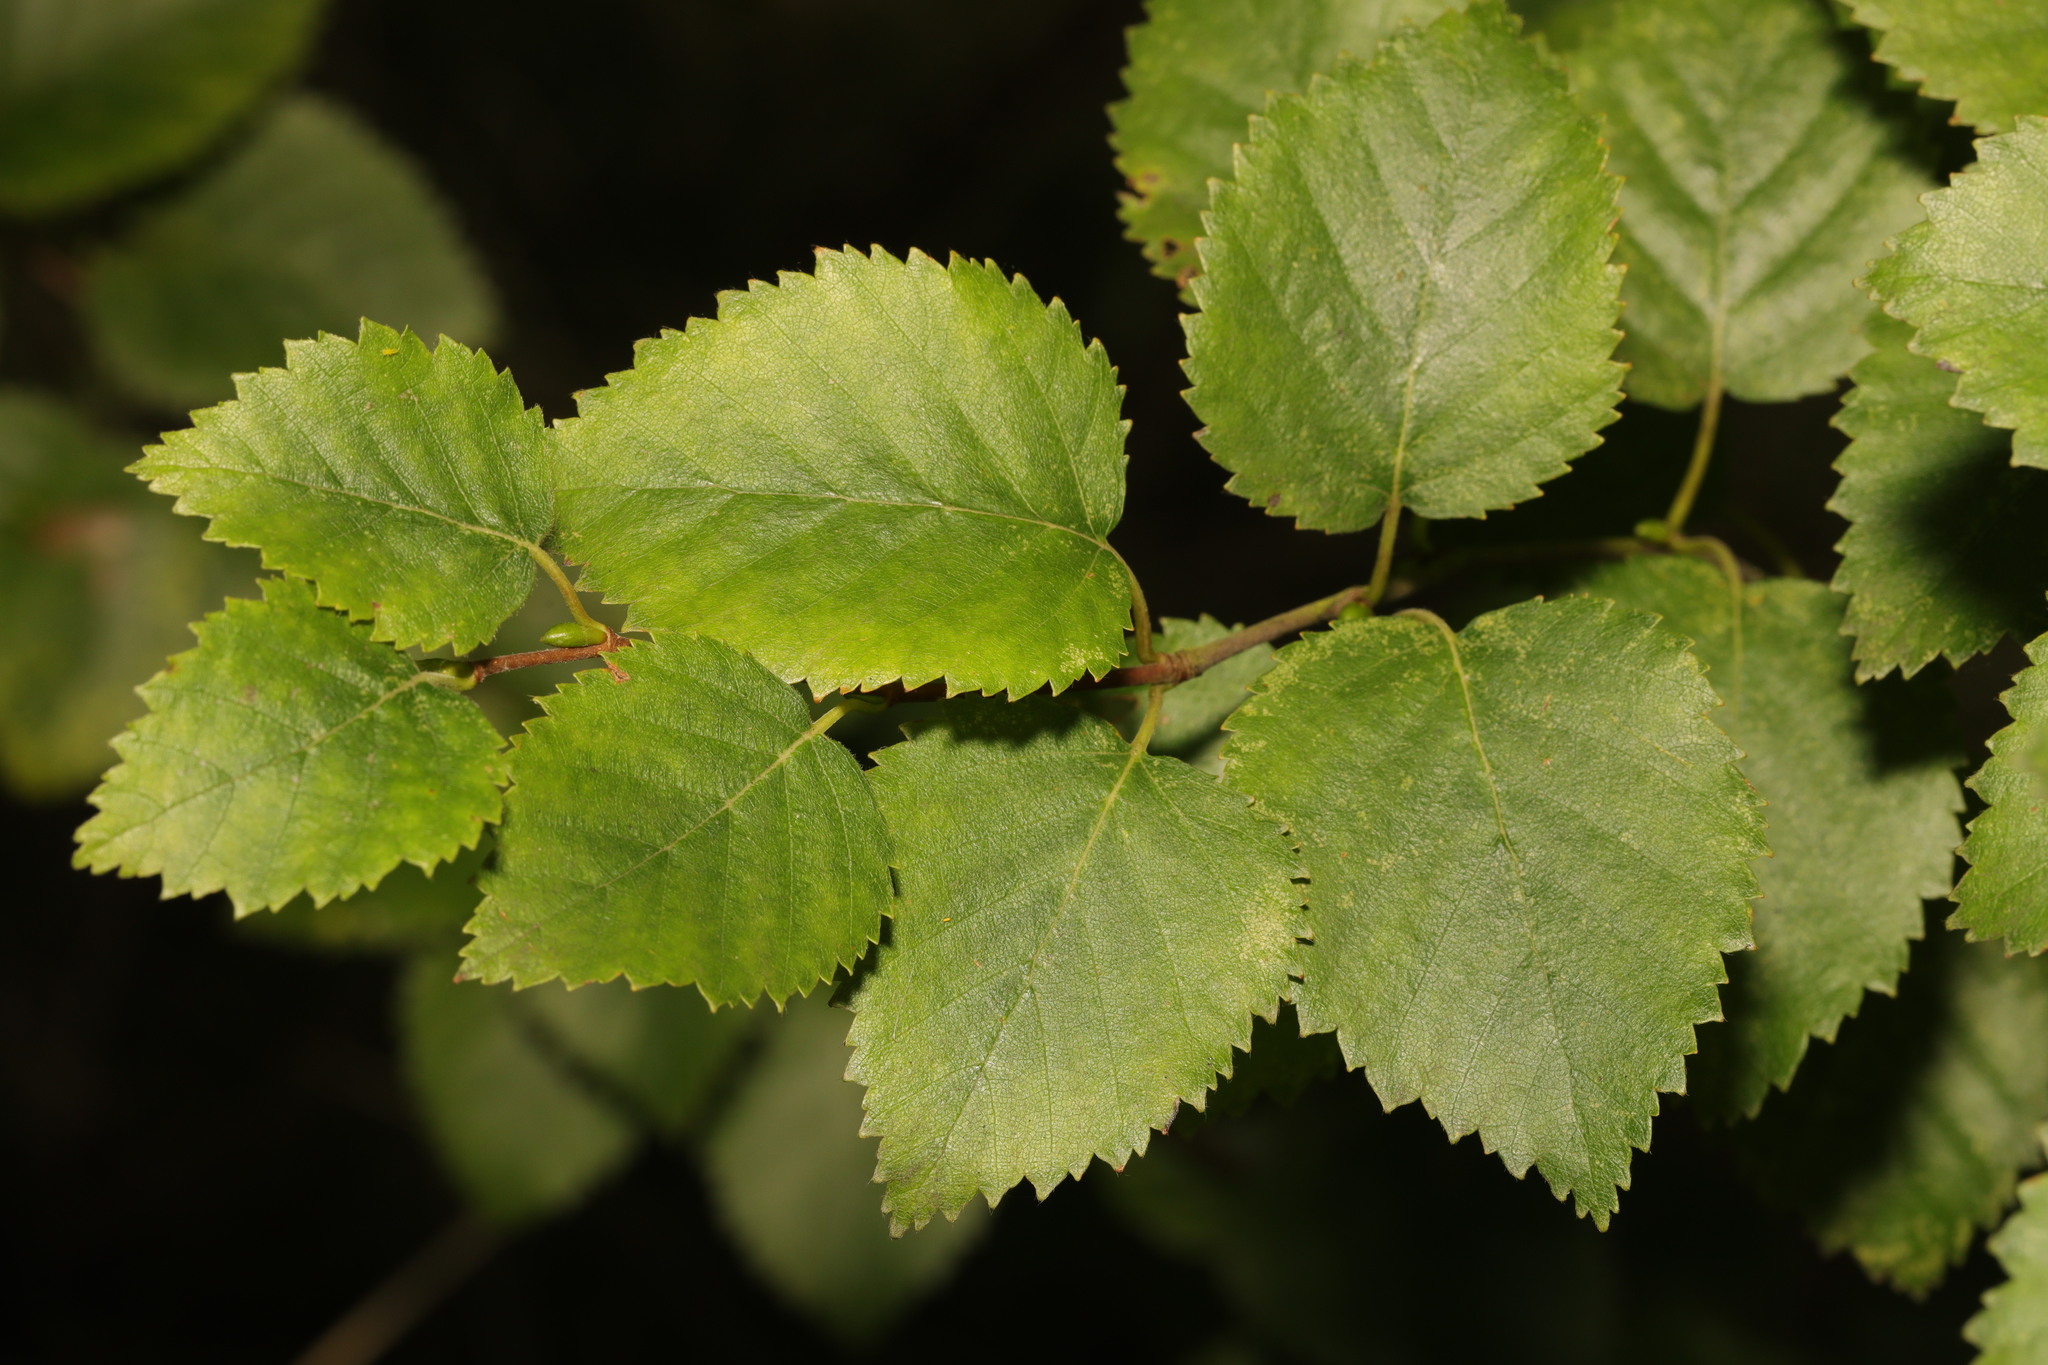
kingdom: Plantae
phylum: Tracheophyta
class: Magnoliopsida
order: Fagales
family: Betulaceae
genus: Betula
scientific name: Betula pubescens
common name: Downy birch
